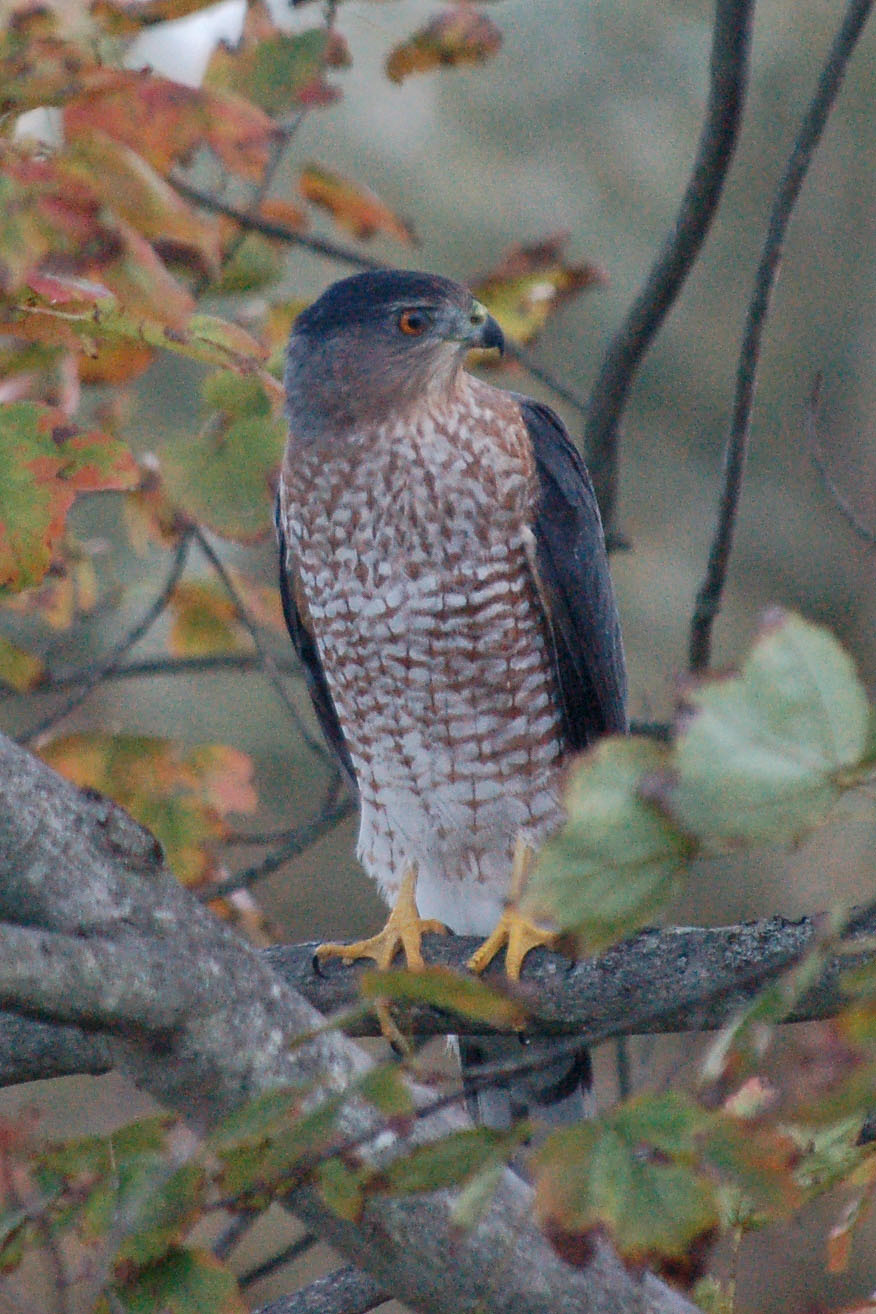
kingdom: Animalia
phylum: Chordata
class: Aves
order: Accipitriformes
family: Accipitridae
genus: Accipiter
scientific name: Accipiter cooperii
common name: Cooper's hawk
